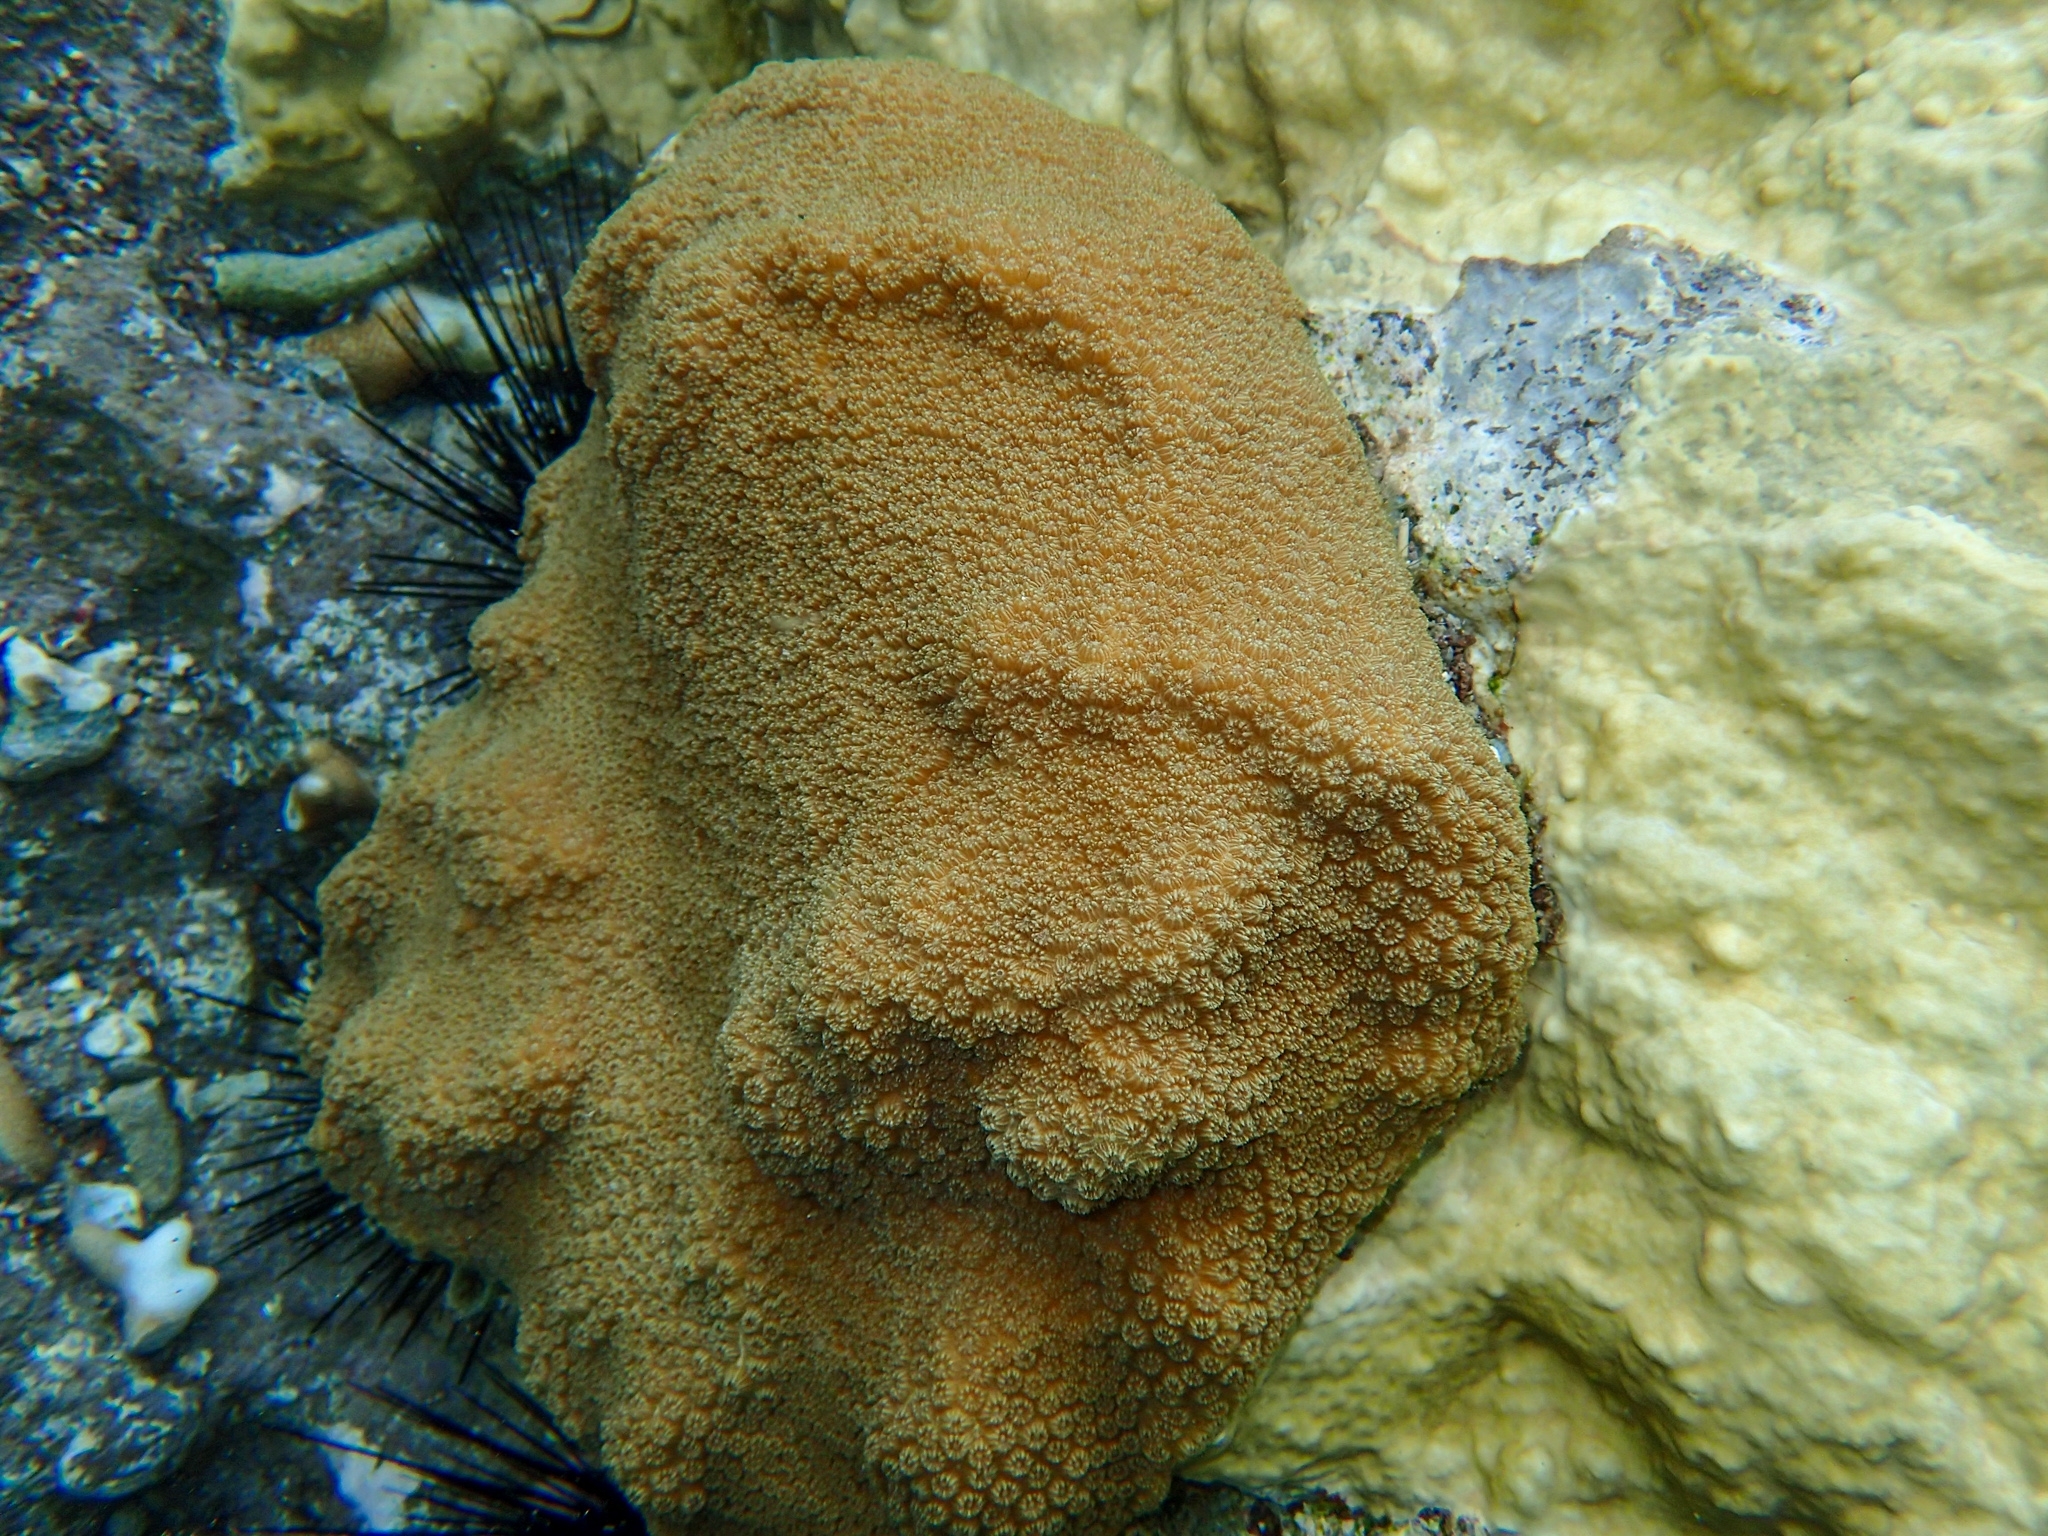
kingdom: Animalia
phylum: Cnidaria
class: Anthozoa
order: Scleractinia
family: Merulinidae
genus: Orbicella
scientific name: Orbicella faveolata
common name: Mountainous star coral
